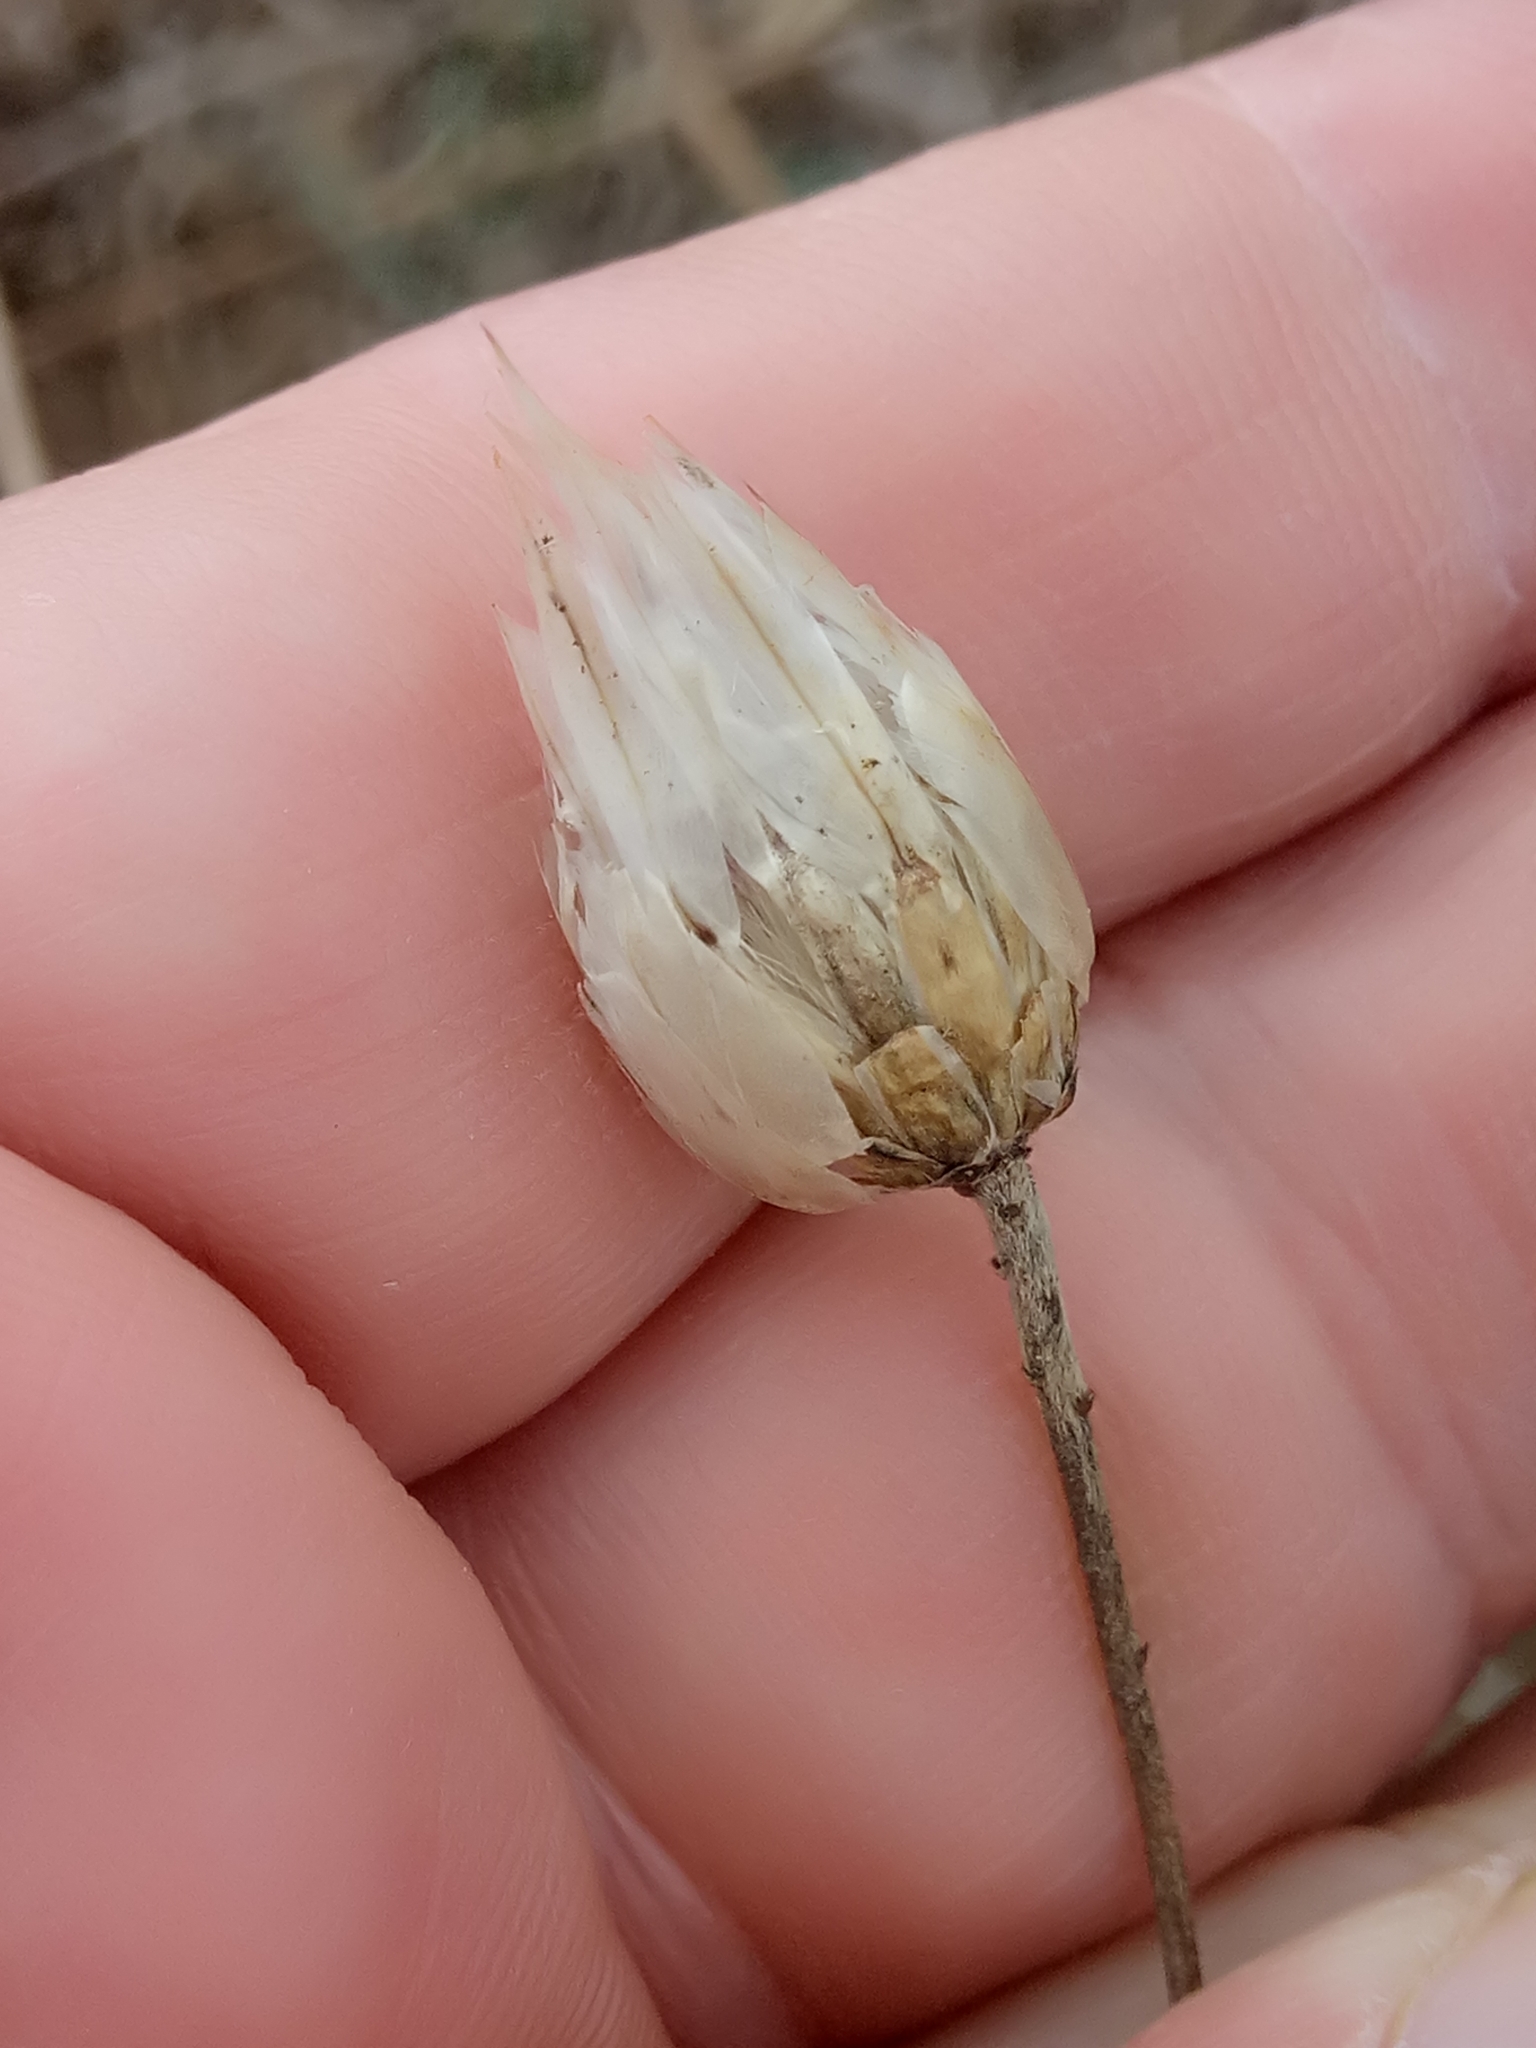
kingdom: Plantae
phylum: Tracheophyta
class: Magnoliopsida
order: Asterales
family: Asteraceae
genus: Catananche
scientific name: Catananche caerulea
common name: Blue cupidone
